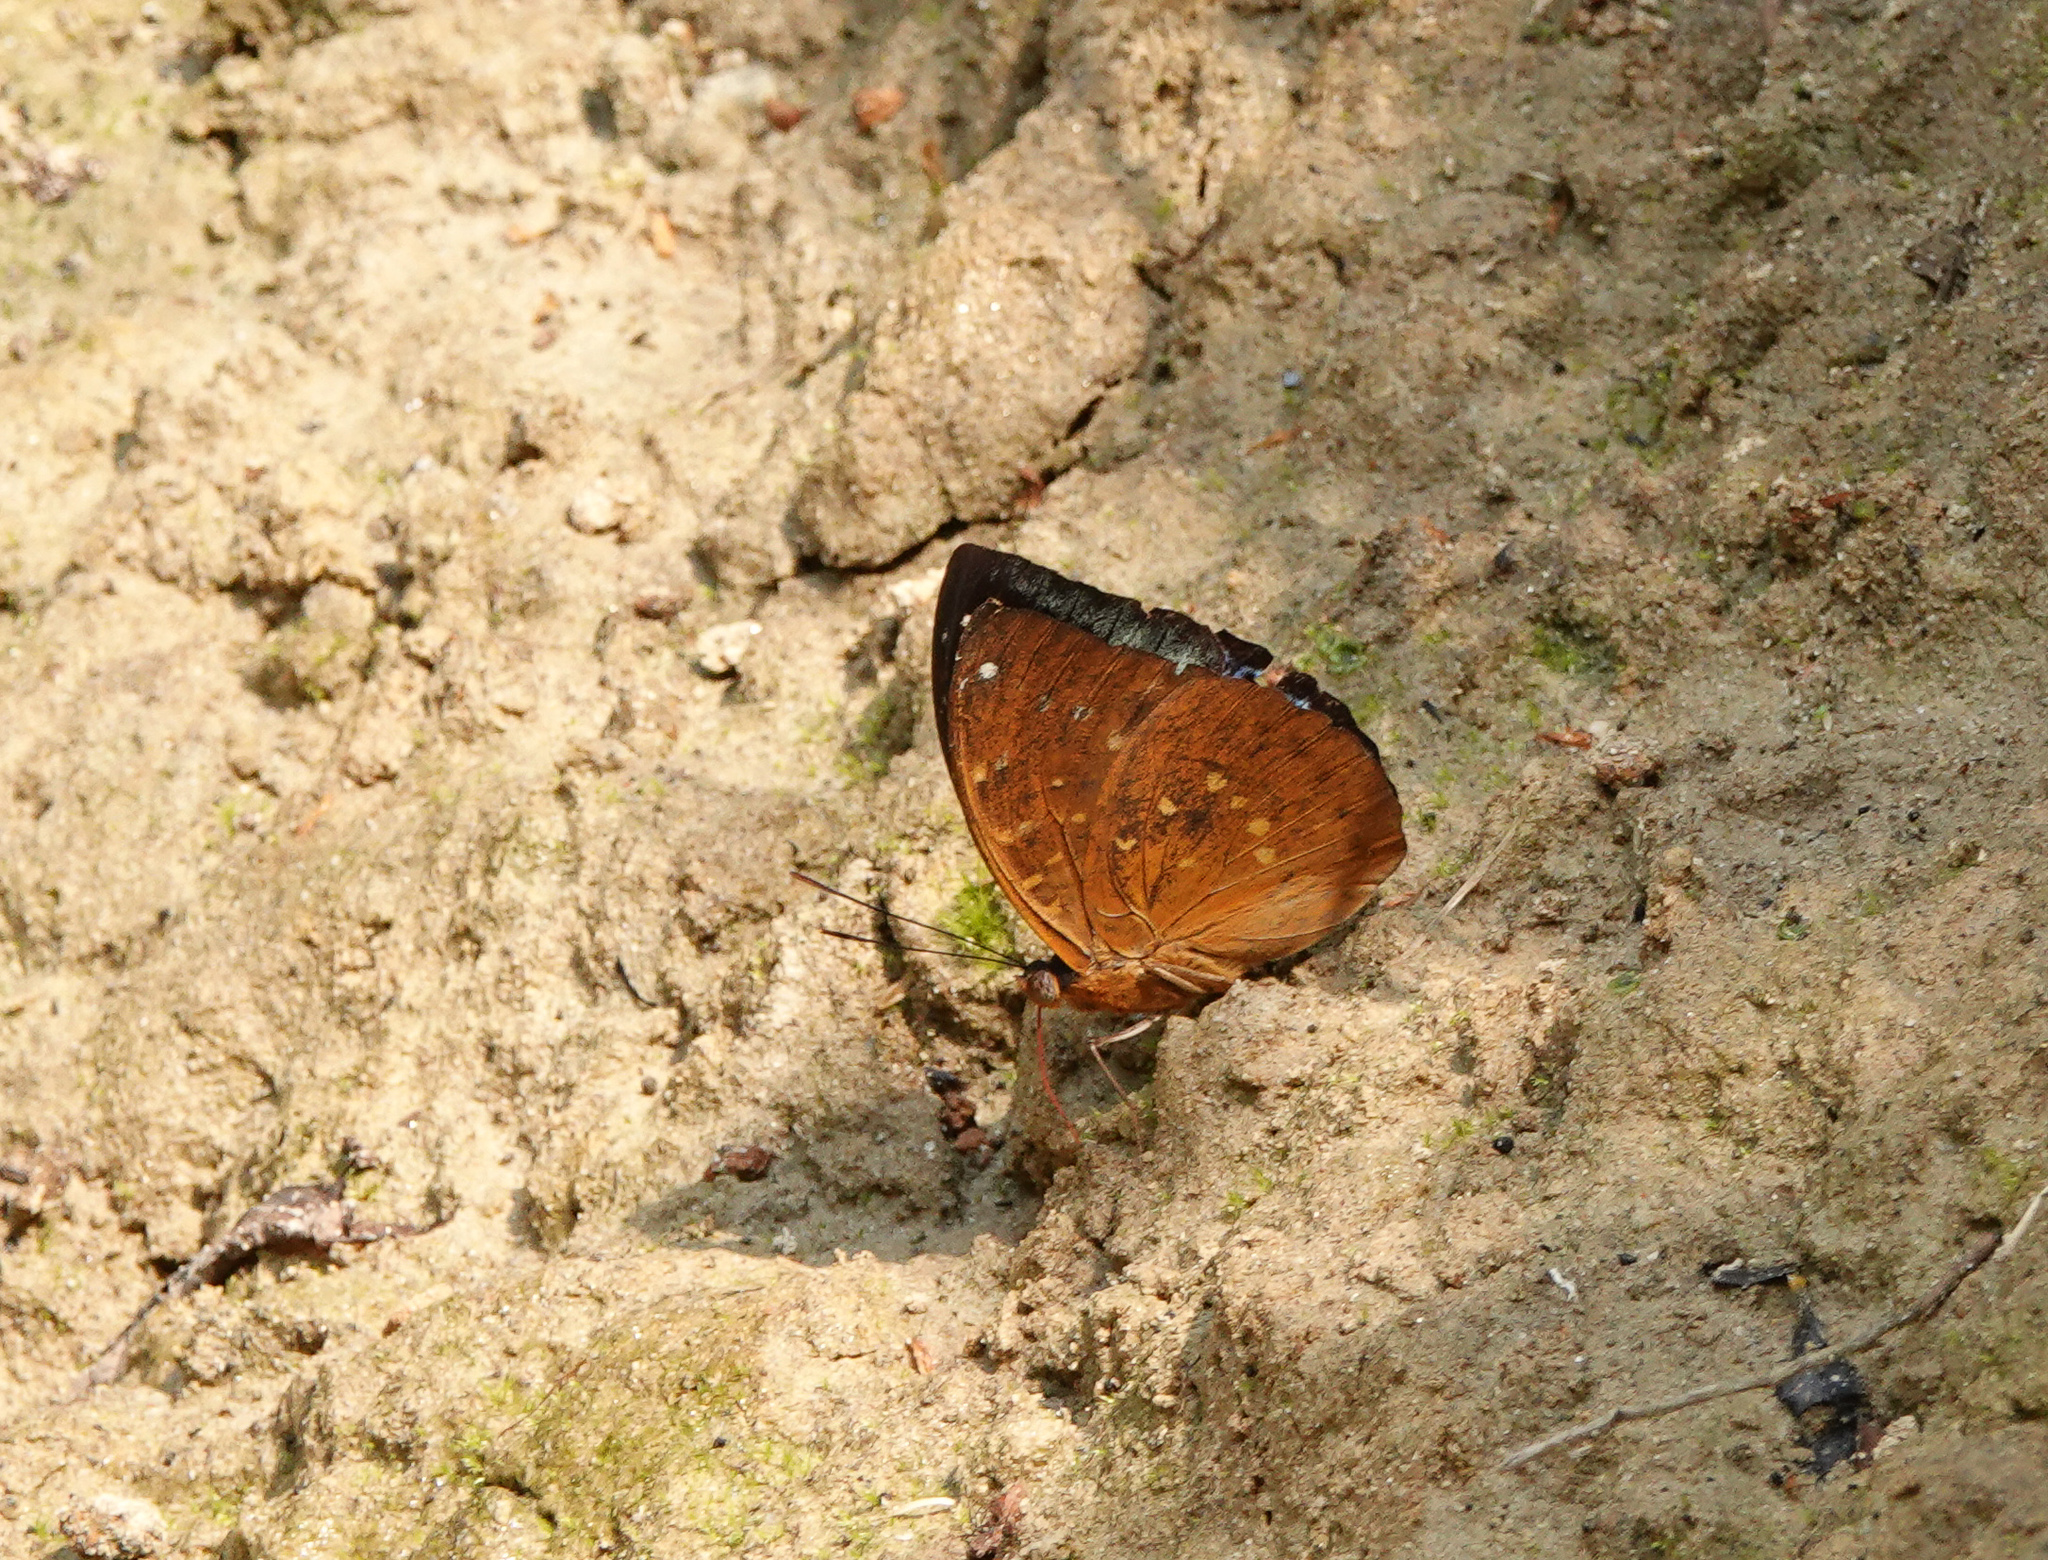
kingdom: Animalia
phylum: Arthropoda
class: Insecta
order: Lepidoptera
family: Nymphalidae
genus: Lexias
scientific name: Lexias dirtea
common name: Black-tipped archduke
